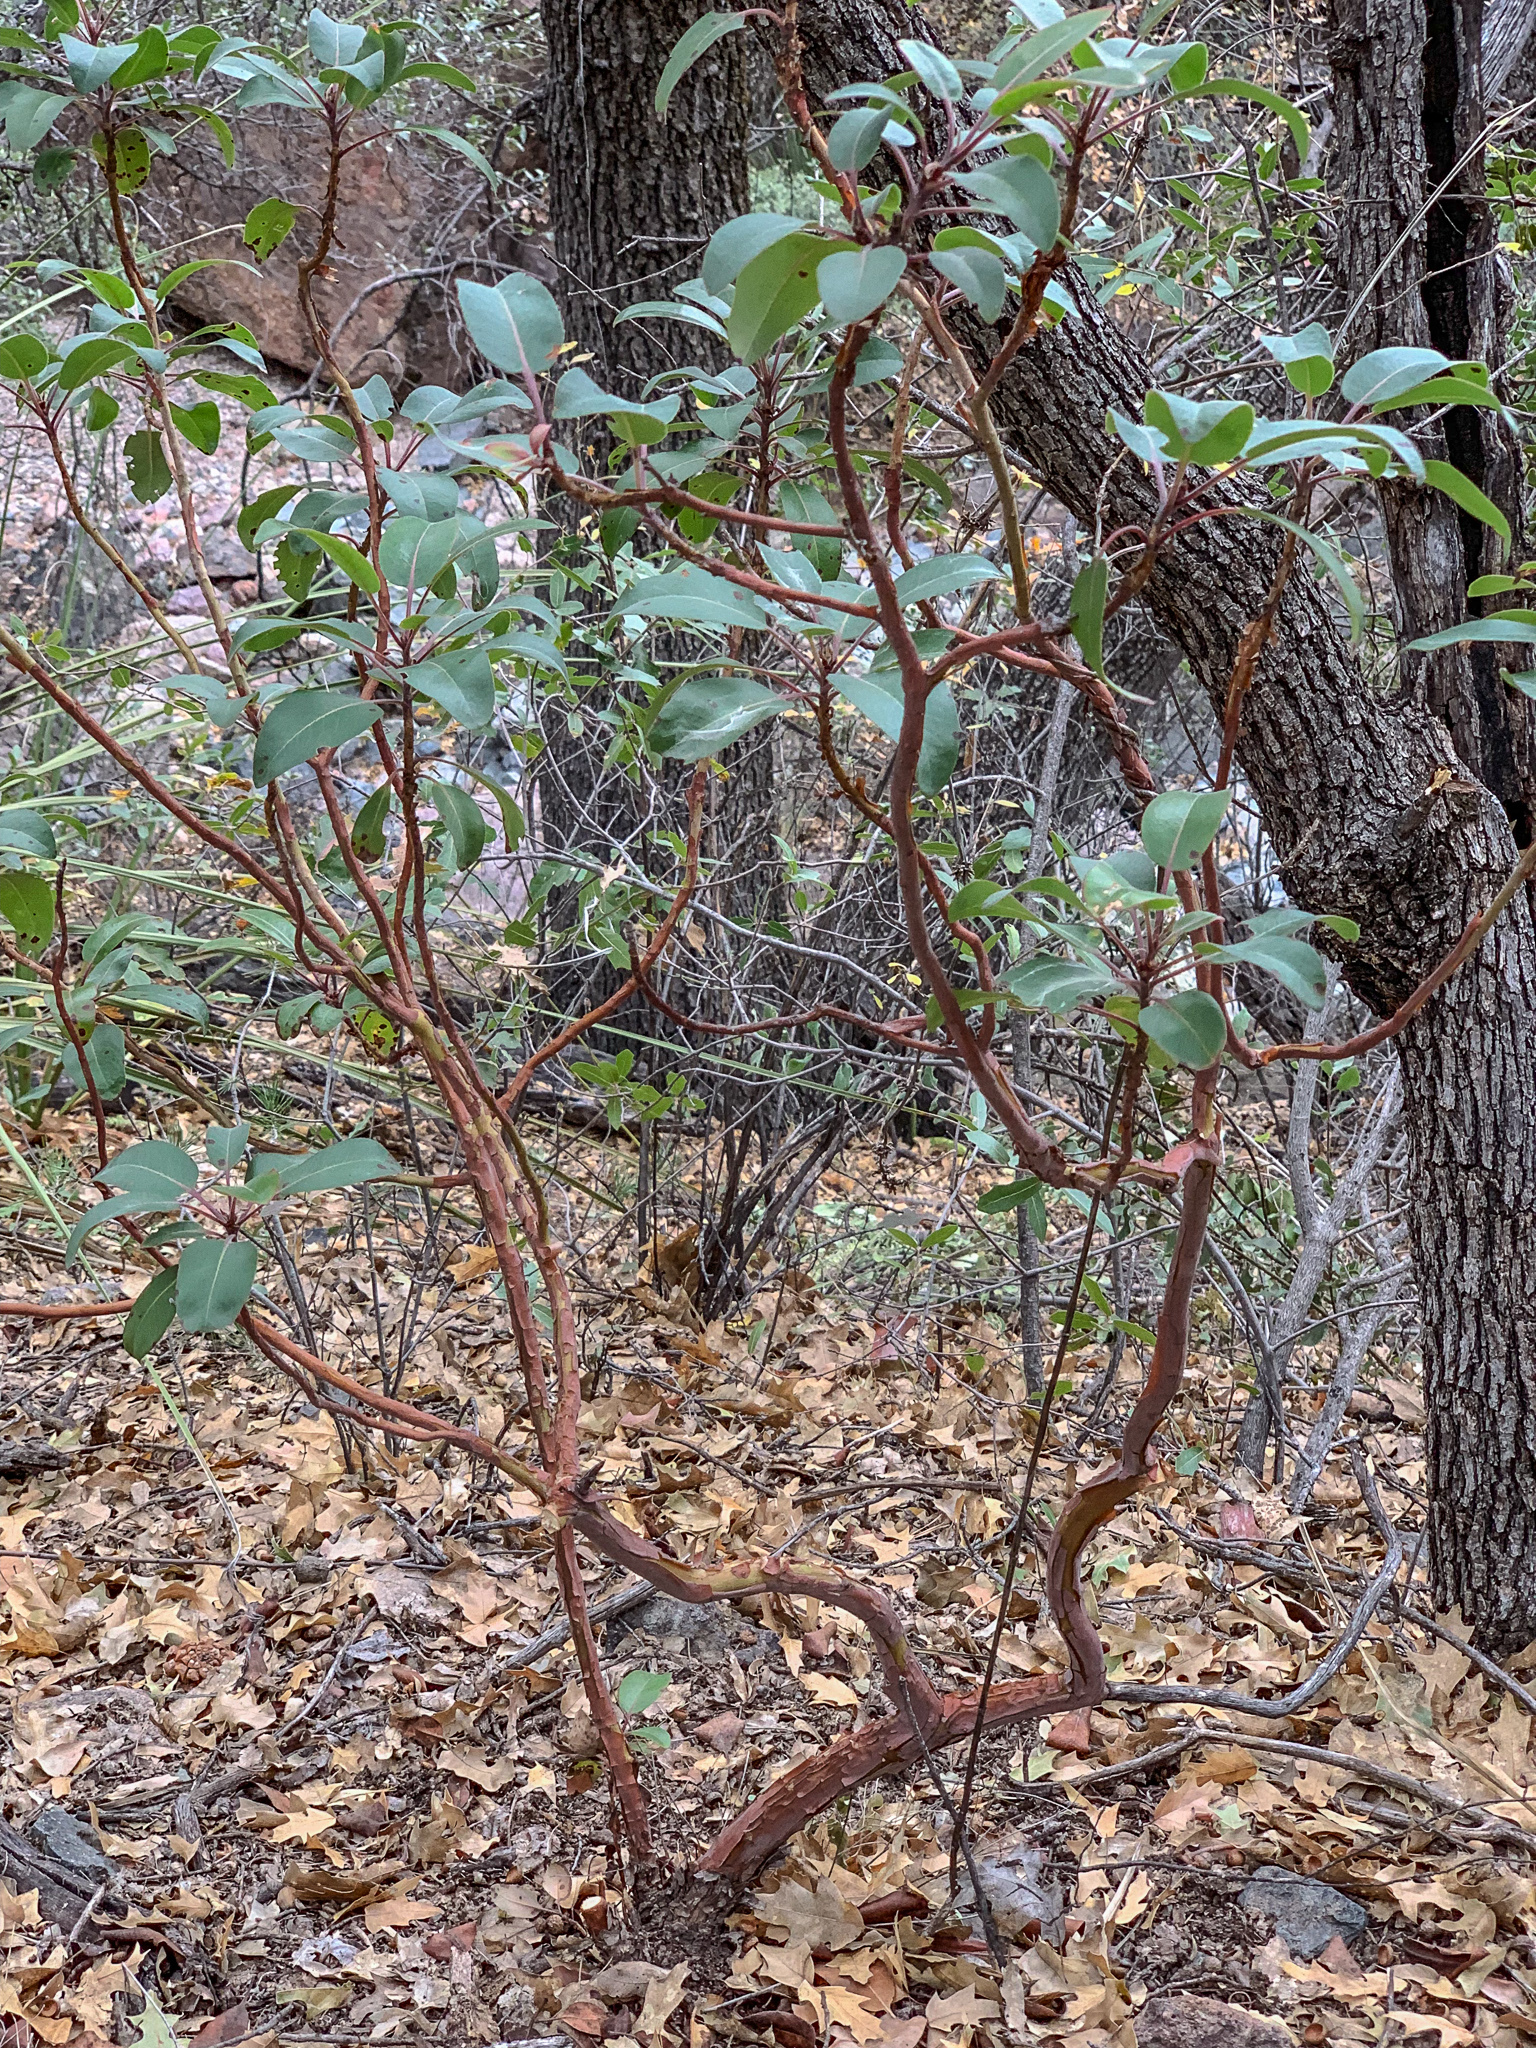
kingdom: Plantae
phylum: Tracheophyta
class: Magnoliopsida
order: Ericales
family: Ericaceae
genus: Arbutus
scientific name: Arbutus xalapensis
